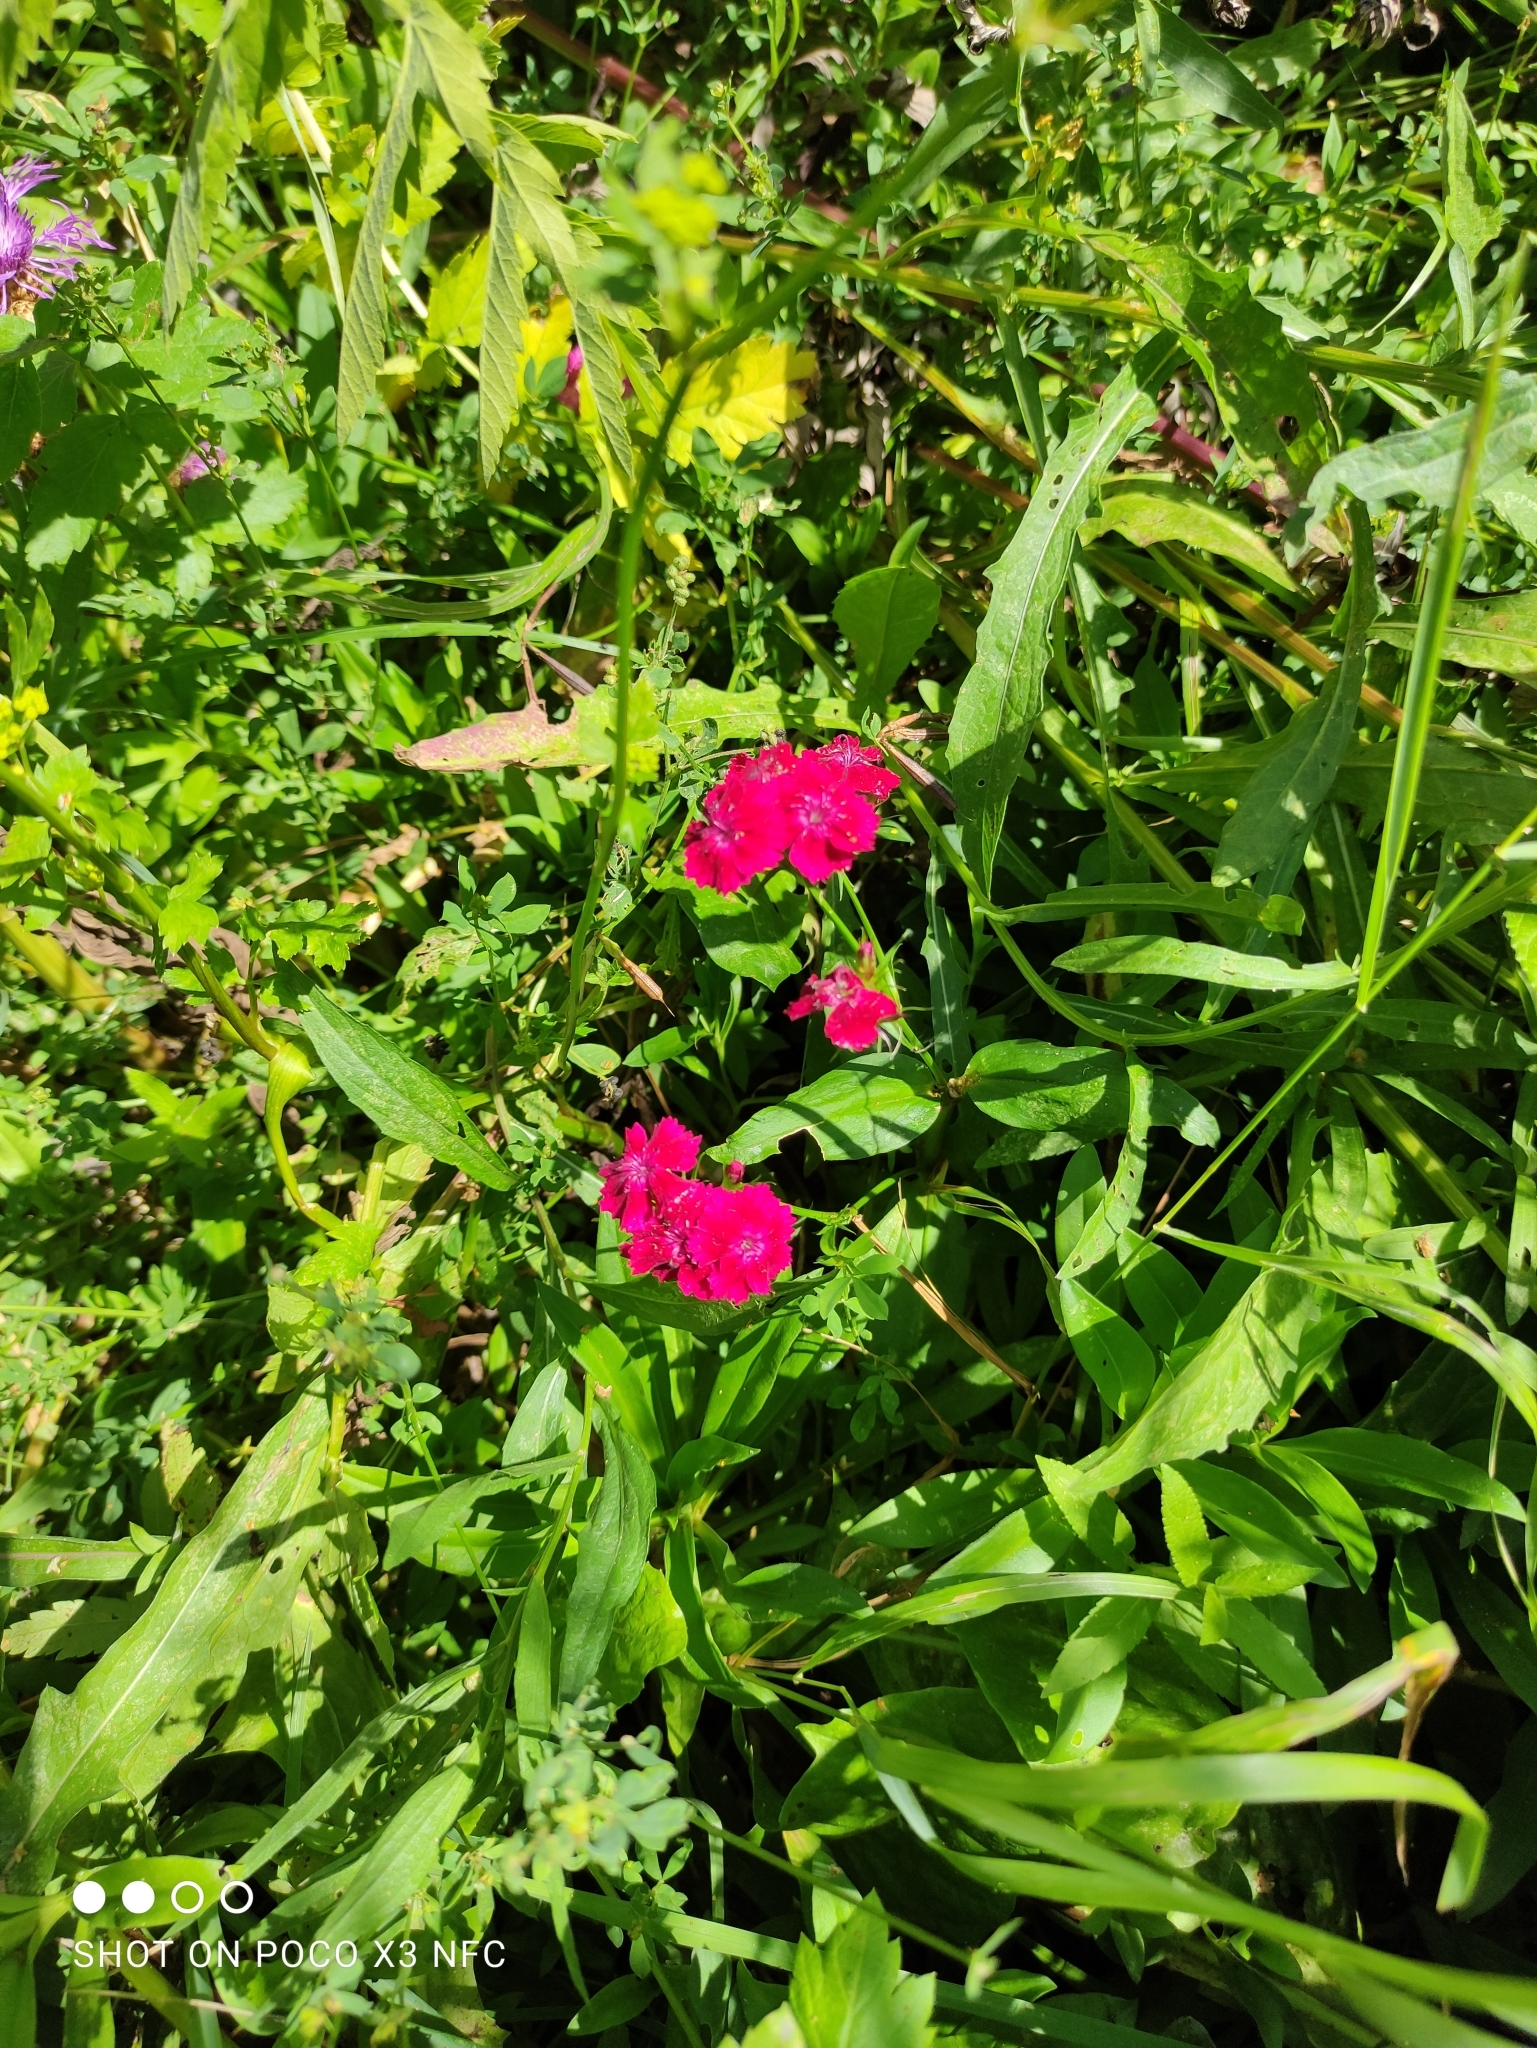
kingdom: Plantae
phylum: Tracheophyta
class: Magnoliopsida
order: Caryophyllales
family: Caryophyllaceae
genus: Dianthus
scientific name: Dianthus barbatus
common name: Sweet-william
